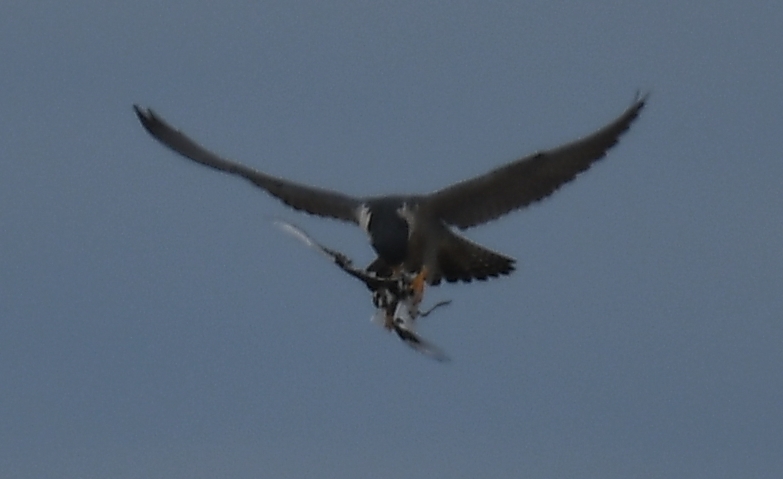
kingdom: Animalia
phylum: Chordata
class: Aves
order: Falconiformes
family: Falconidae
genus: Falco
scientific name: Falco peregrinus
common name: Peregrine falcon
